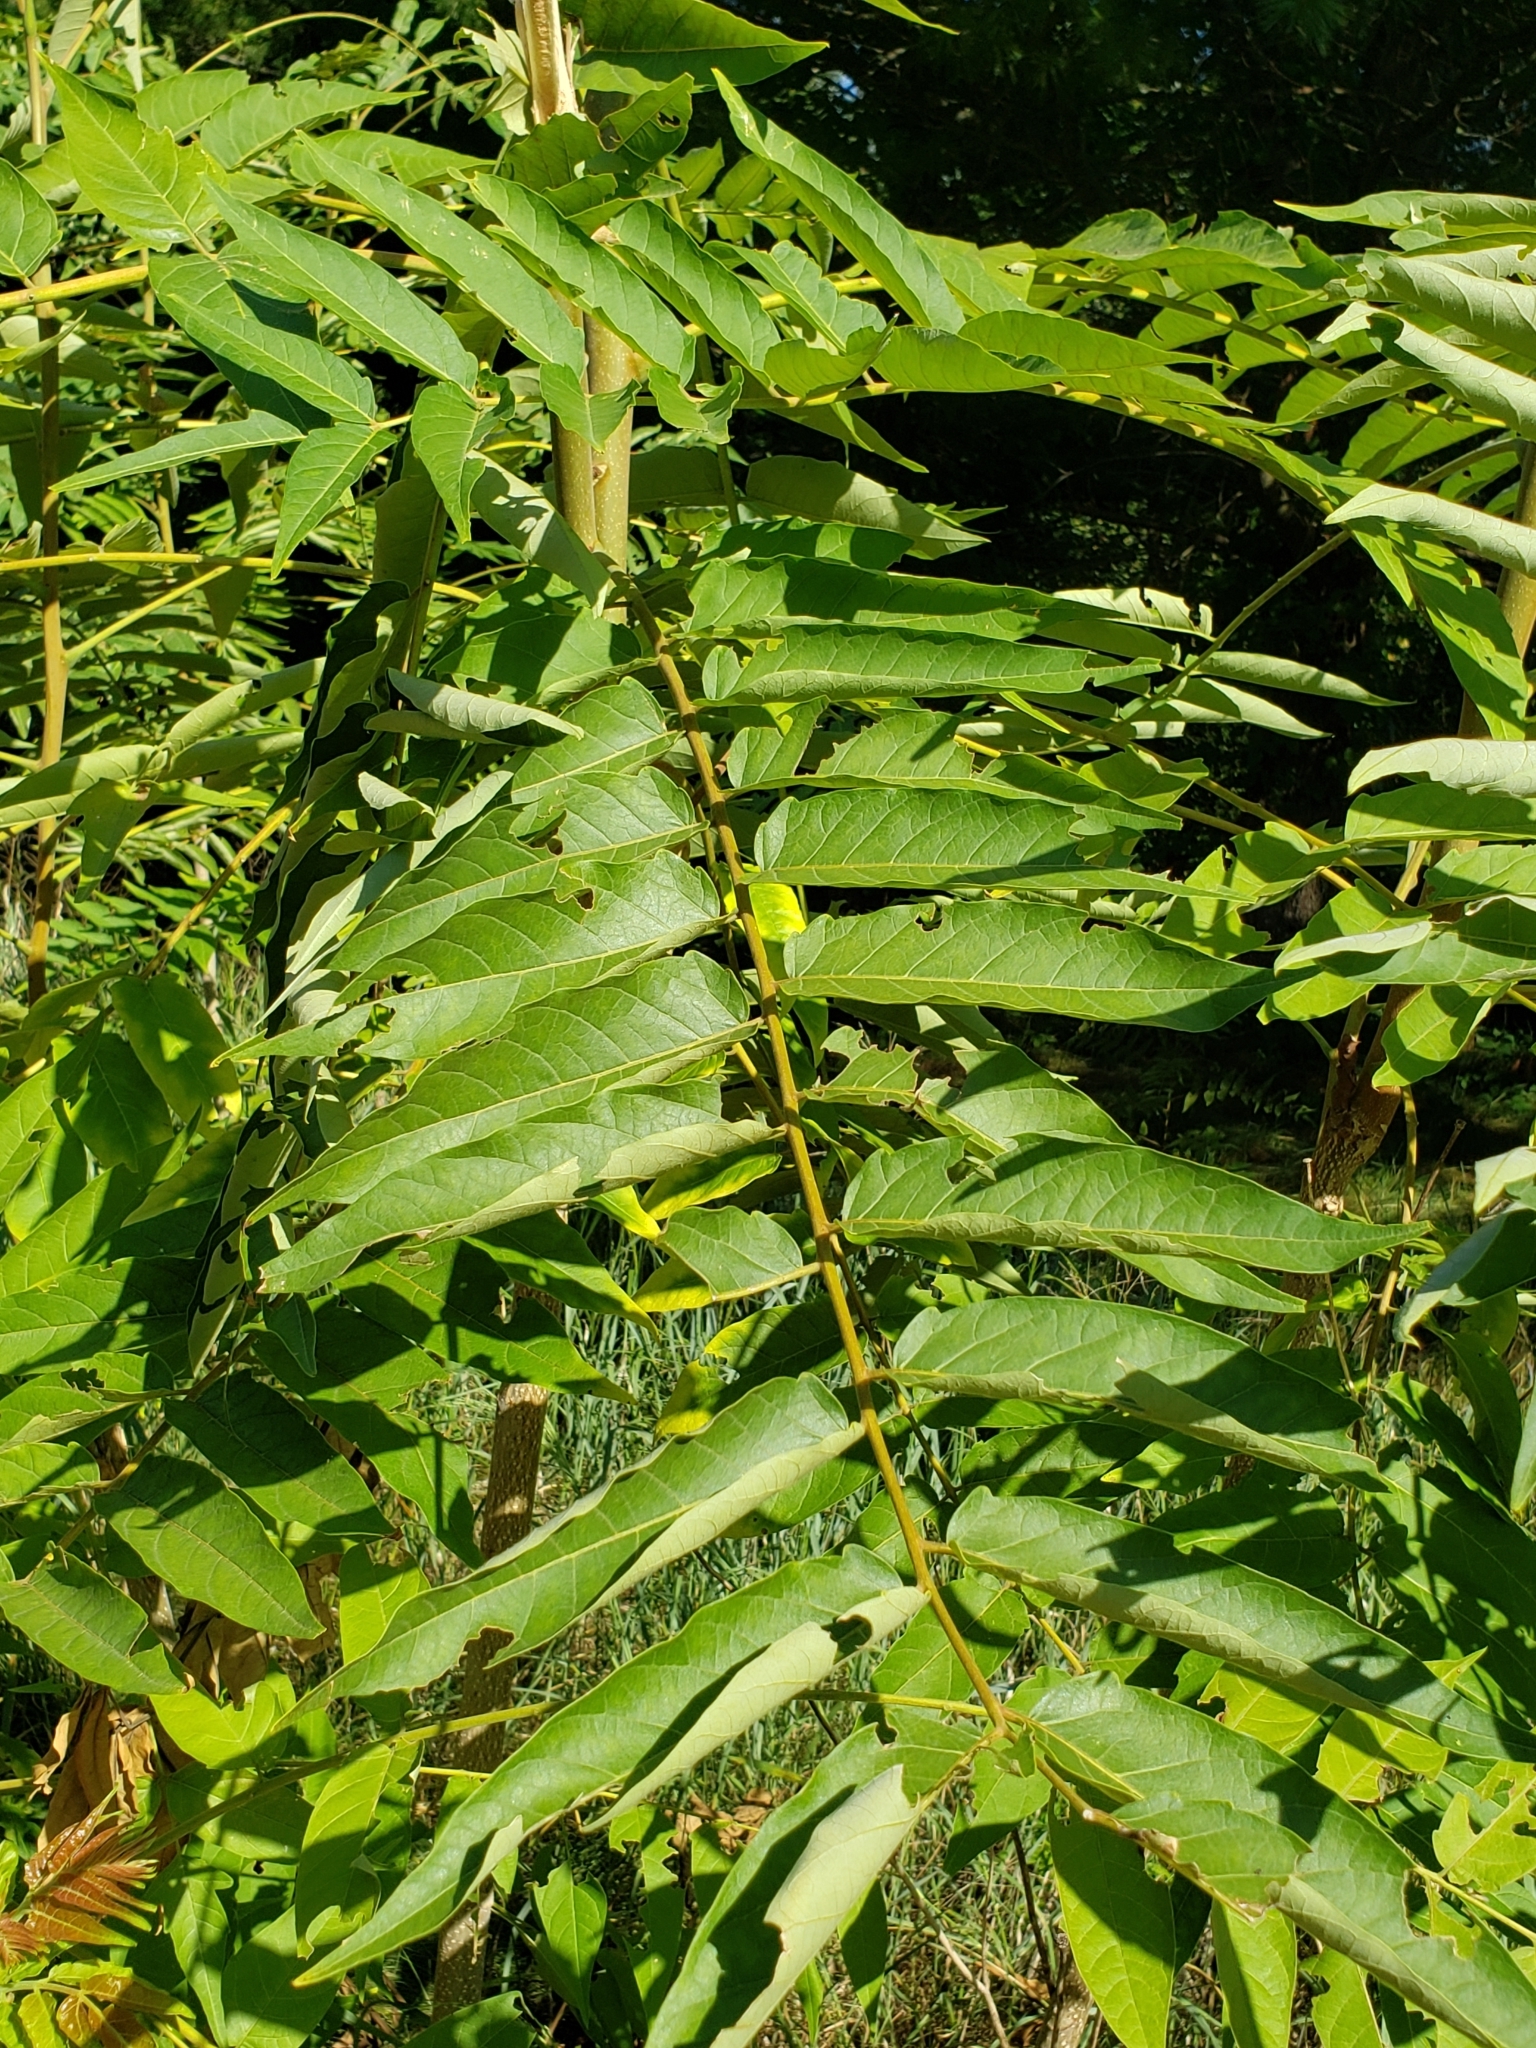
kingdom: Plantae
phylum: Tracheophyta
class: Magnoliopsida
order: Sapindales
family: Simaroubaceae
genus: Ailanthus
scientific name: Ailanthus altissima
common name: Tree-of-heaven
